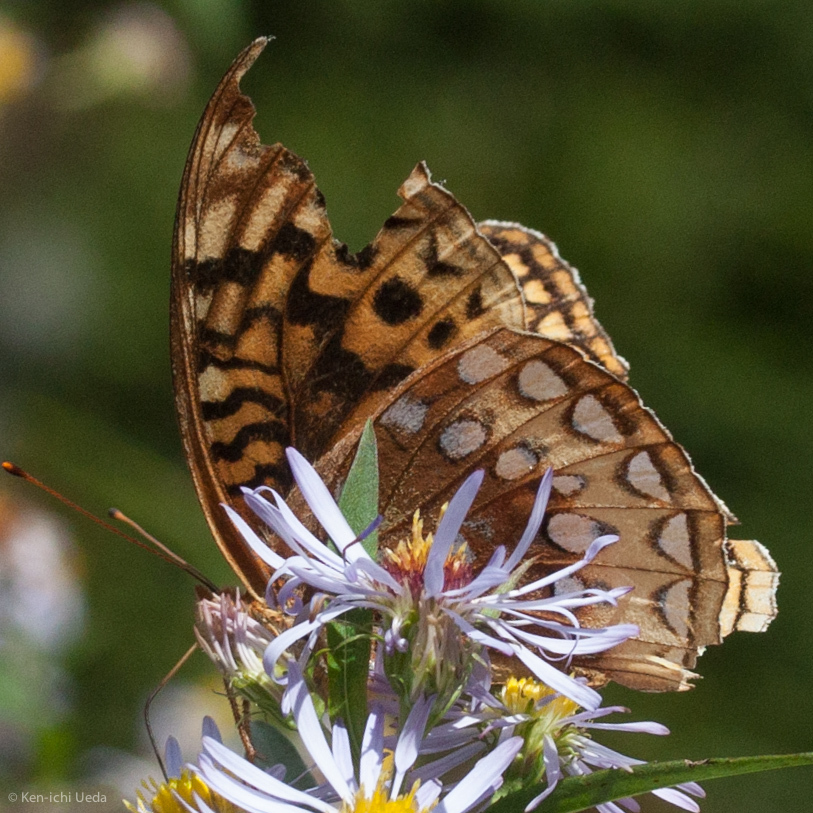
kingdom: Animalia
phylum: Arthropoda
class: Insecta
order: Lepidoptera
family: Nymphalidae
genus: Speyeria
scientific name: Speyeria cybele
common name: Great spangled fritillary
